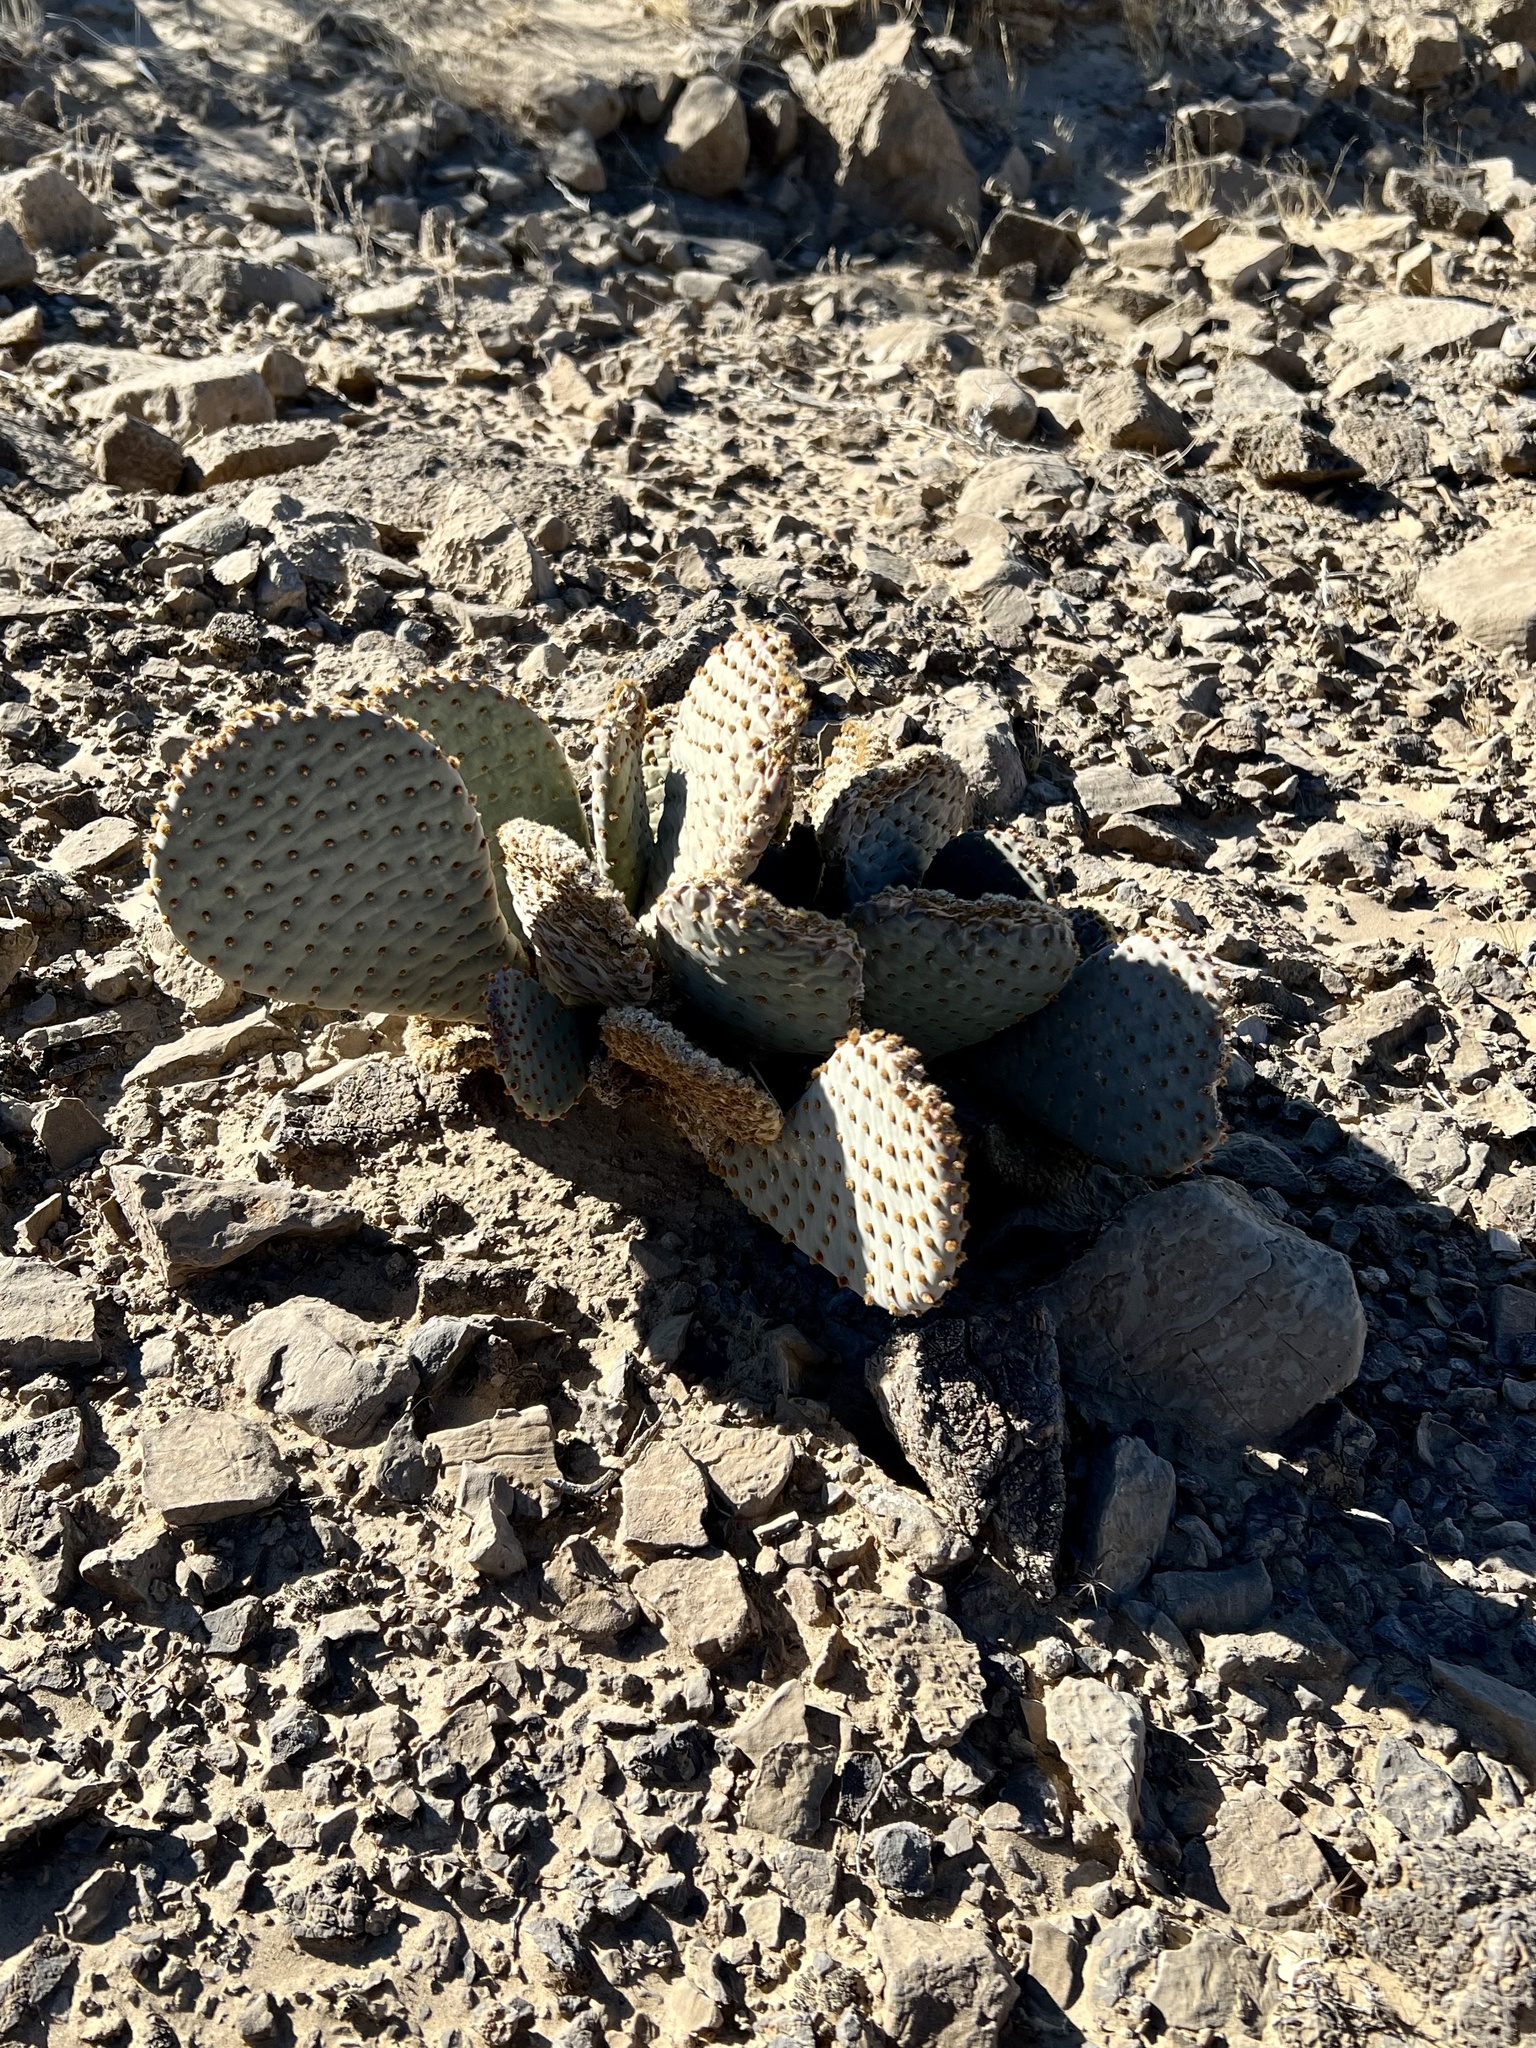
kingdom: Plantae
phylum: Tracheophyta
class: Magnoliopsida
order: Caryophyllales
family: Cactaceae
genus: Opuntia
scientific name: Opuntia basilaris
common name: Beavertail prickly-pear
